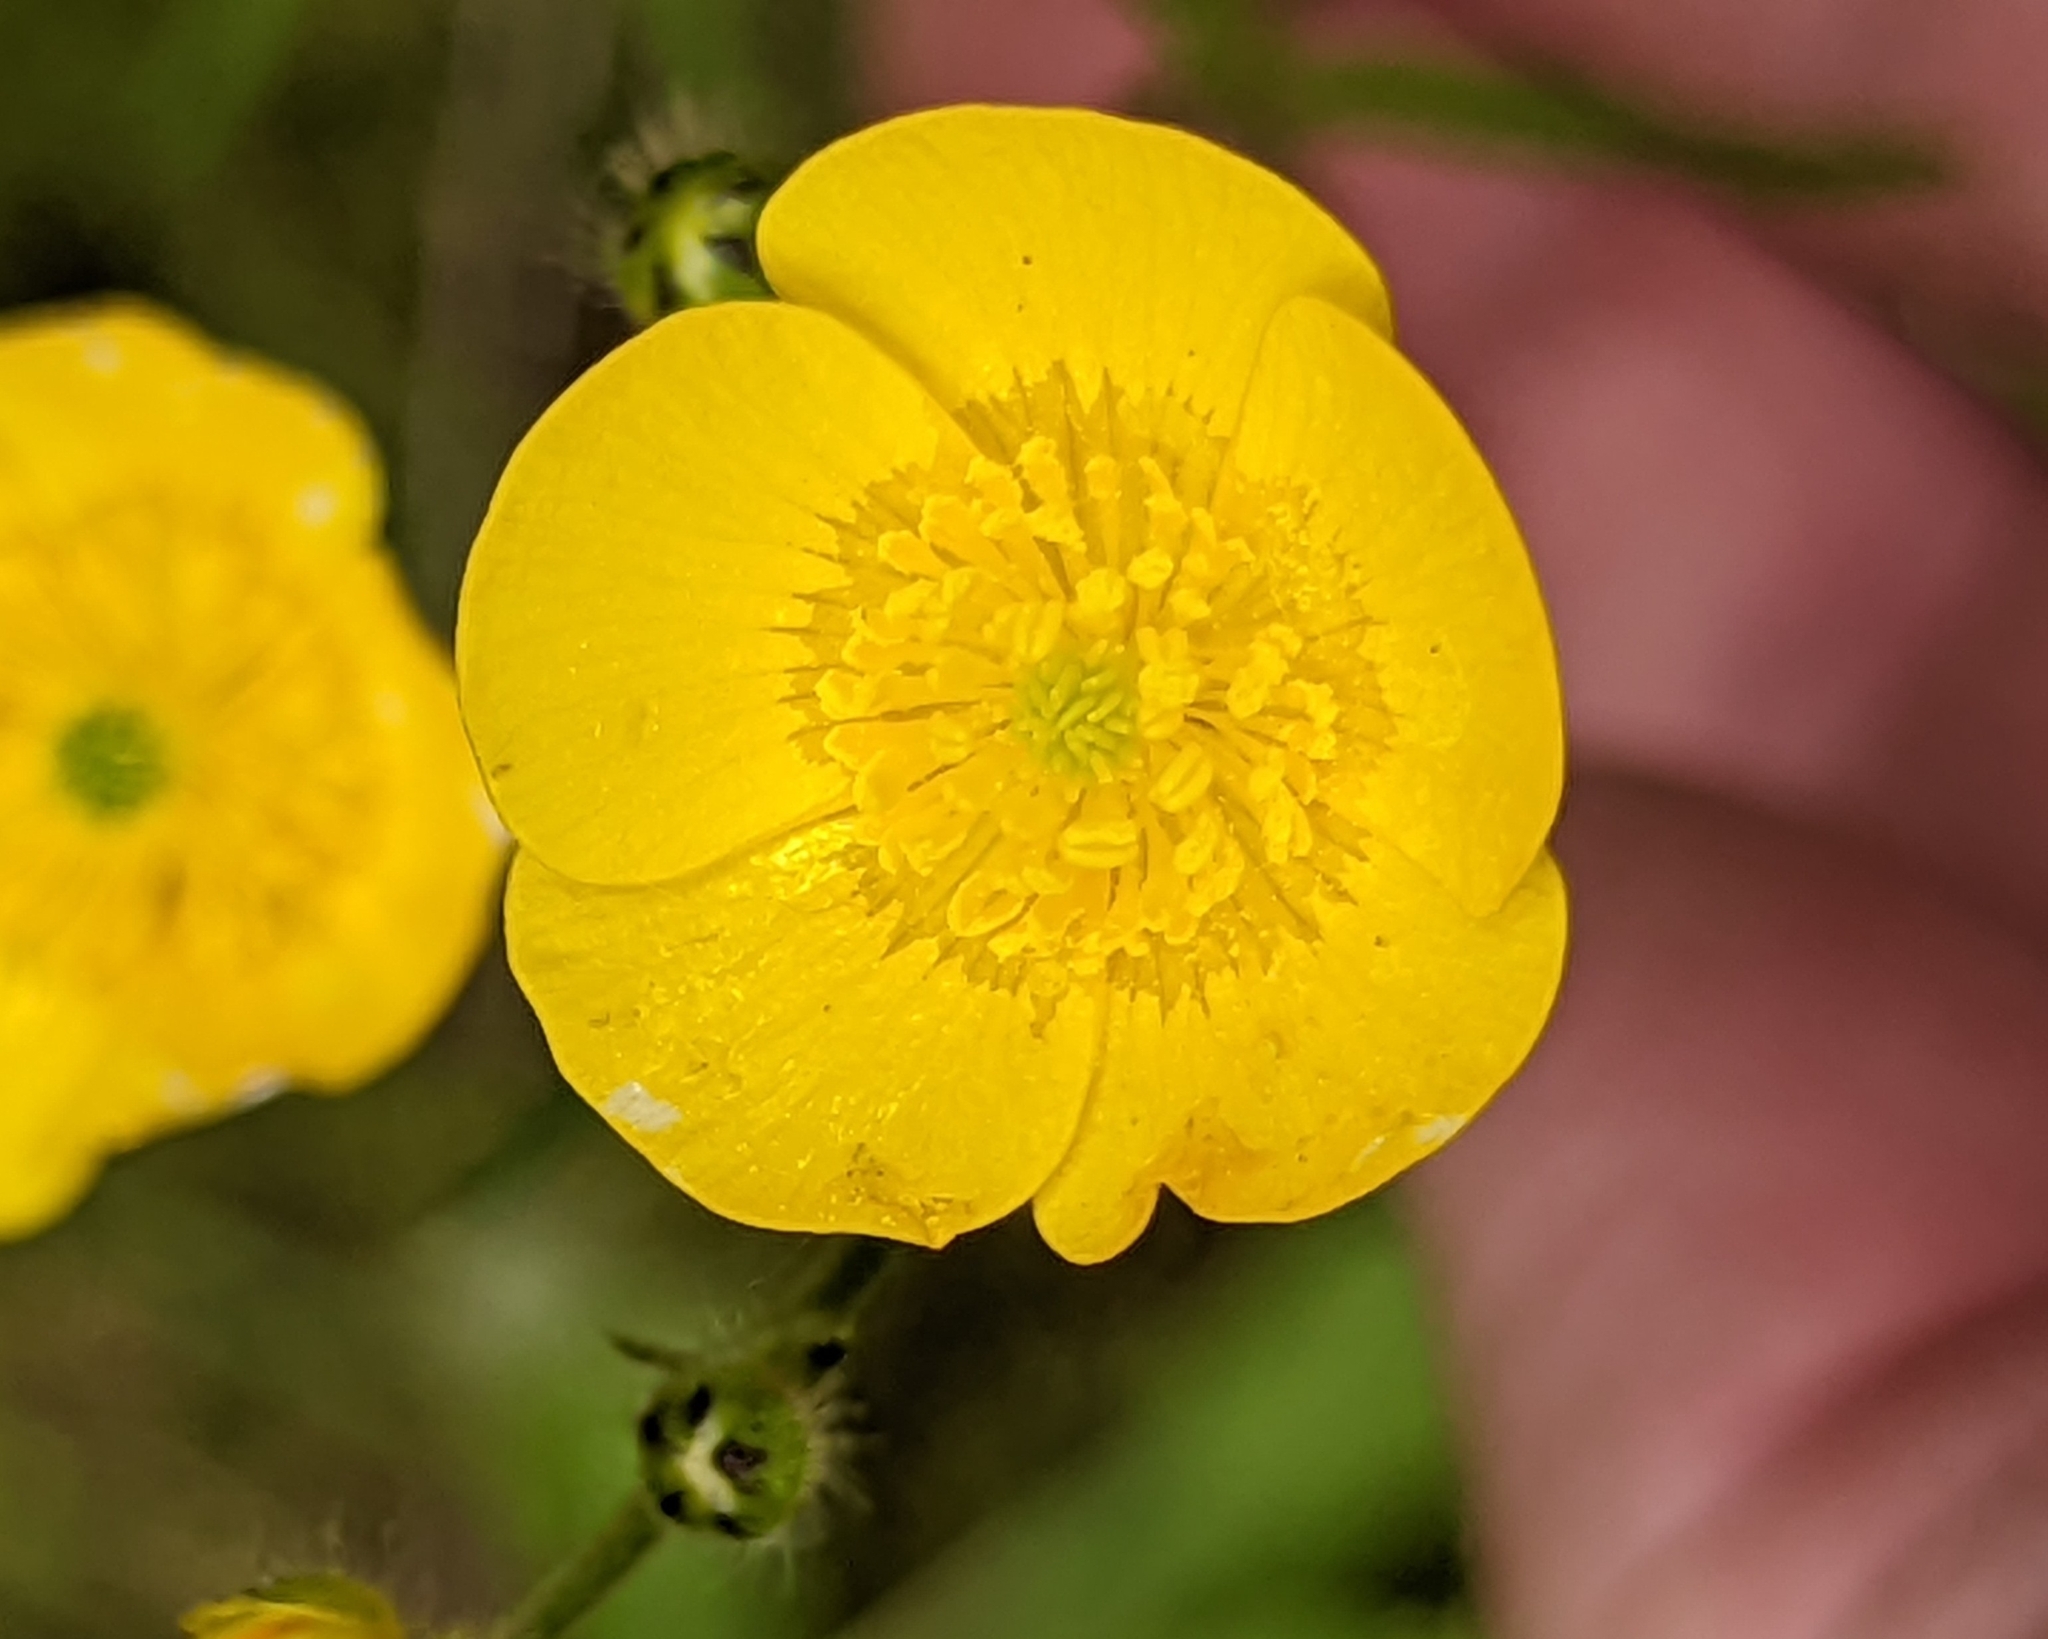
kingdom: Plantae
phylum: Tracheophyta
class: Magnoliopsida
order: Ranunculales
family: Ranunculaceae
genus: Ranunculus
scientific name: Ranunculus acris
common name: Meadow buttercup
